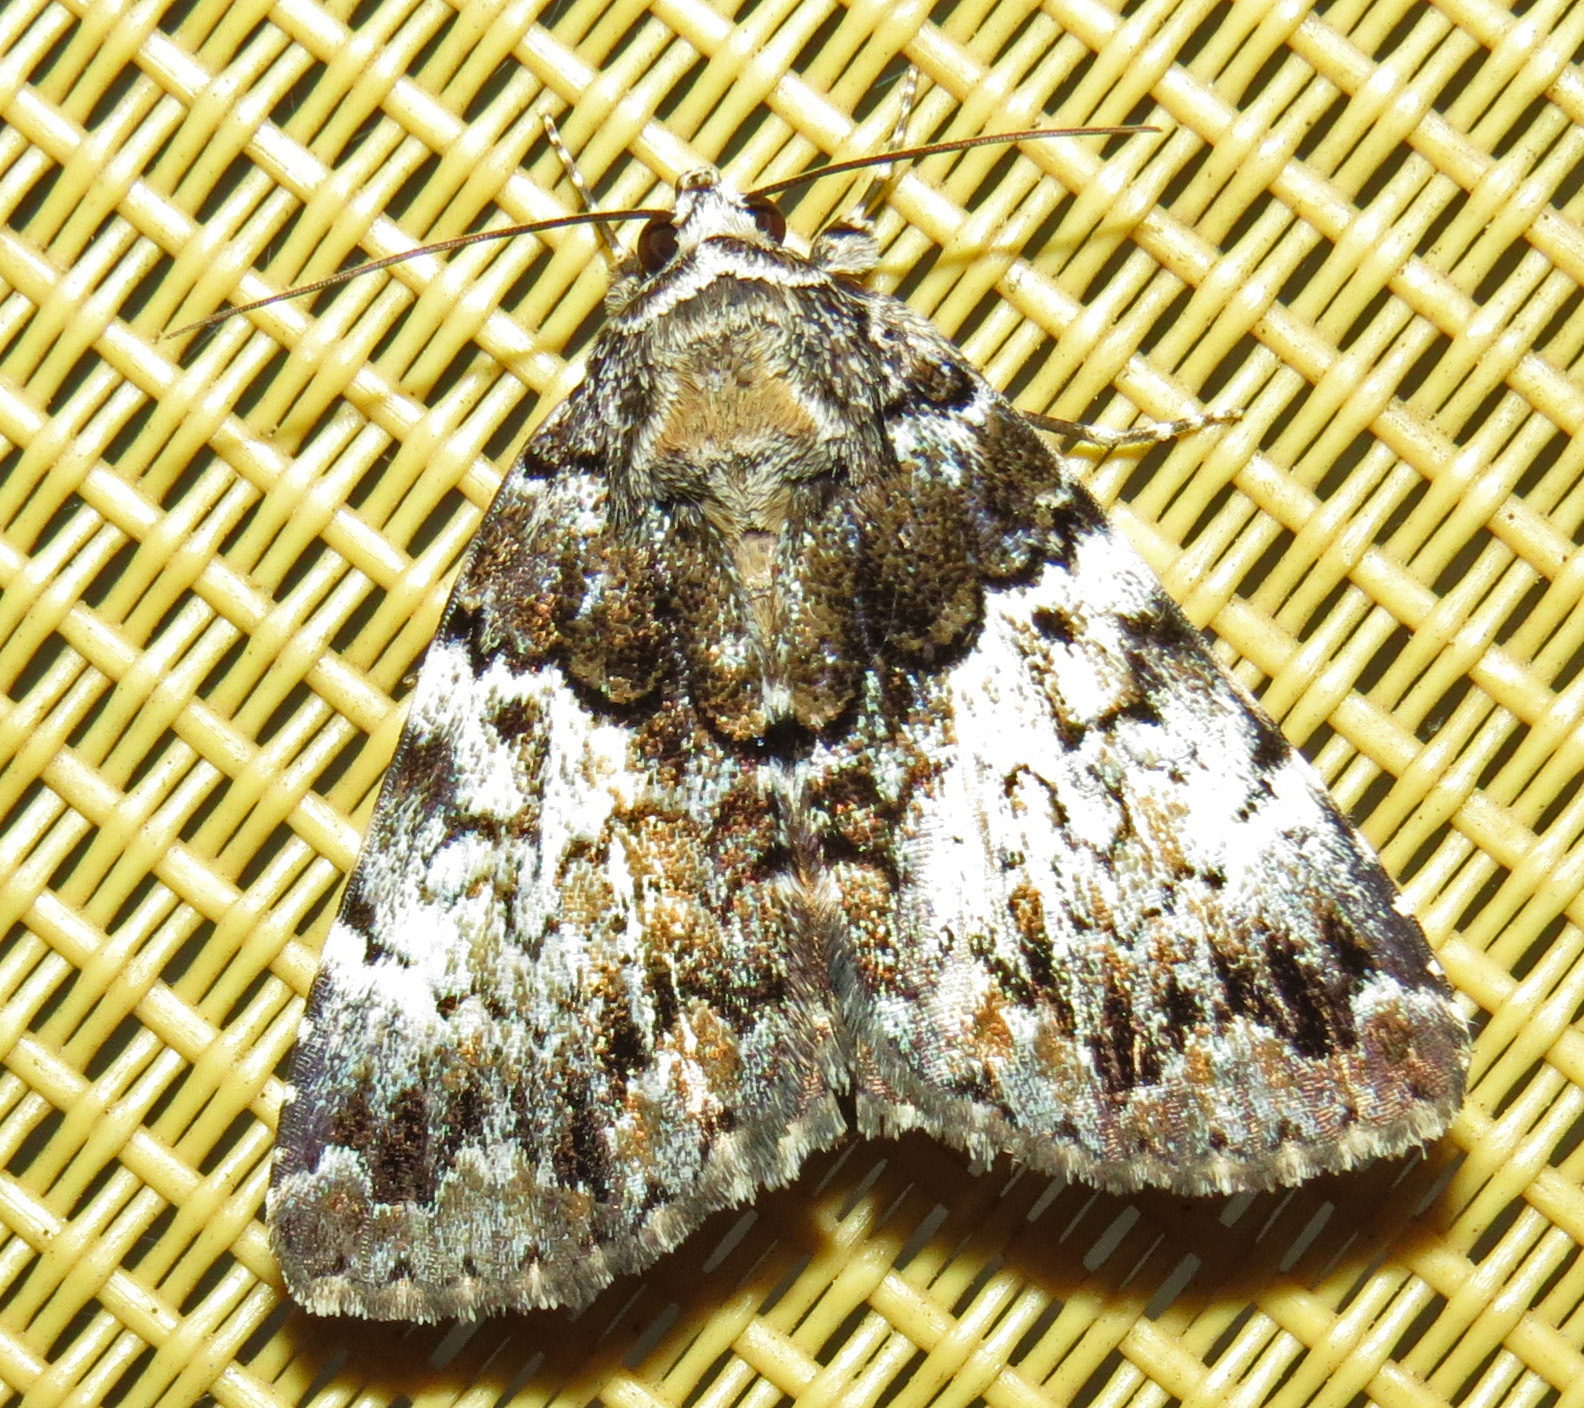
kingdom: Animalia
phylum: Arthropoda
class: Insecta
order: Lepidoptera
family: Erebidae
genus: Allotria
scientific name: Allotria elonympha
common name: False underwing
